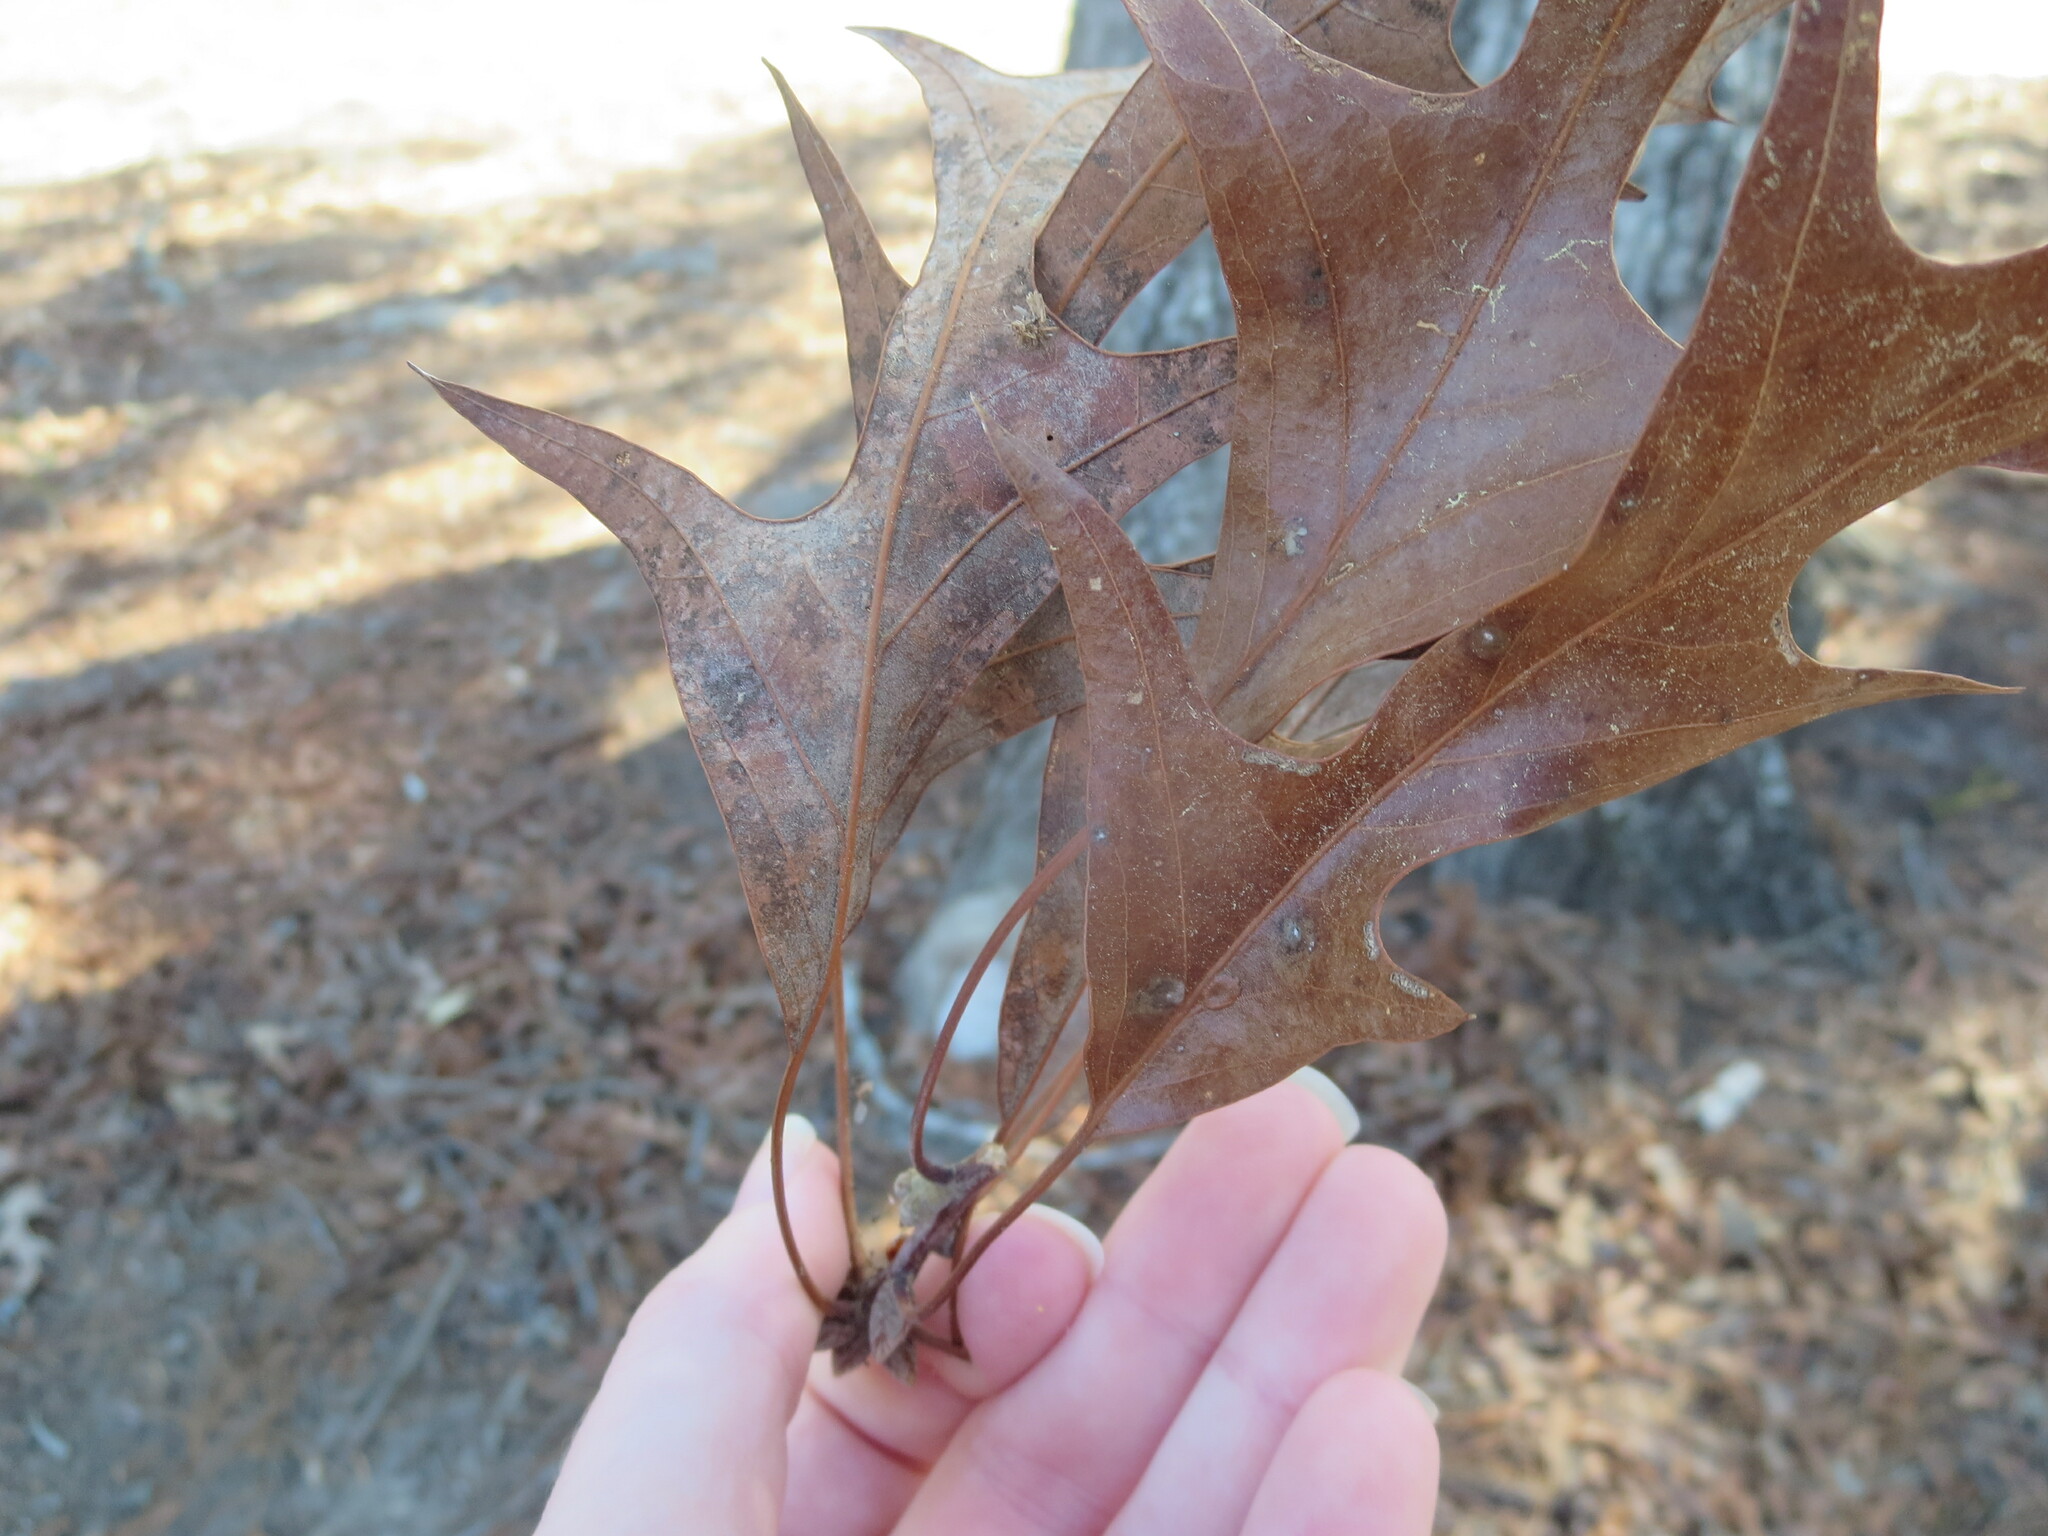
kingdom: Plantae
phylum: Tracheophyta
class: Magnoliopsida
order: Fagales
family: Fagaceae
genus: Quercus
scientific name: Quercus pagoda
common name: Cherrybark oak
